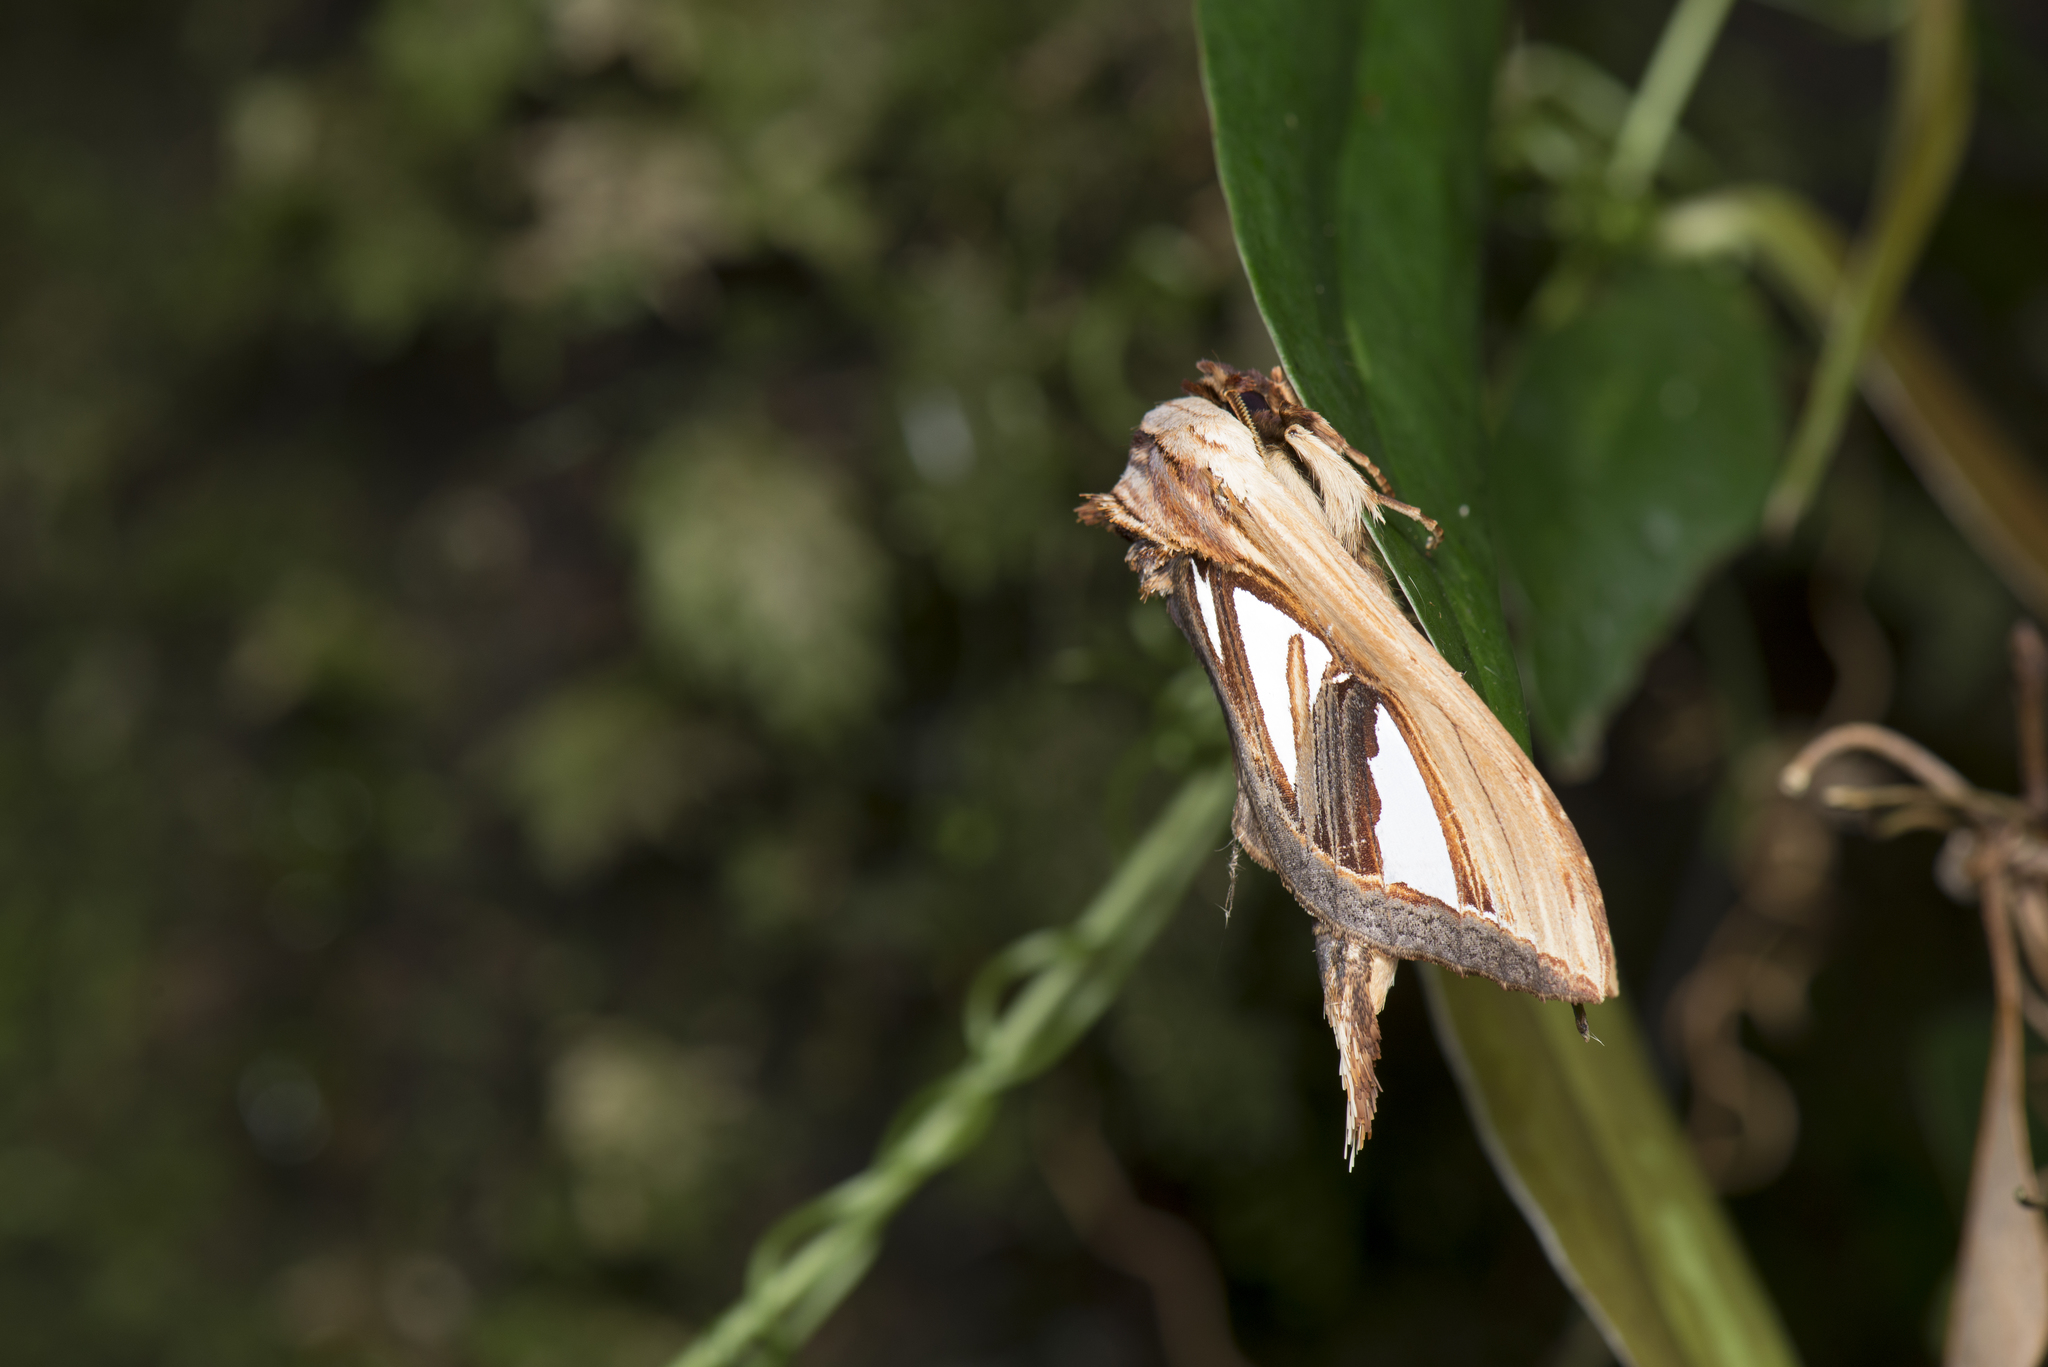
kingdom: Animalia
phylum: Arthropoda
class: Insecta
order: Lepidoptera
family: Notodontidae
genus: Tarsolepis
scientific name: Tarsolepis taiwana
